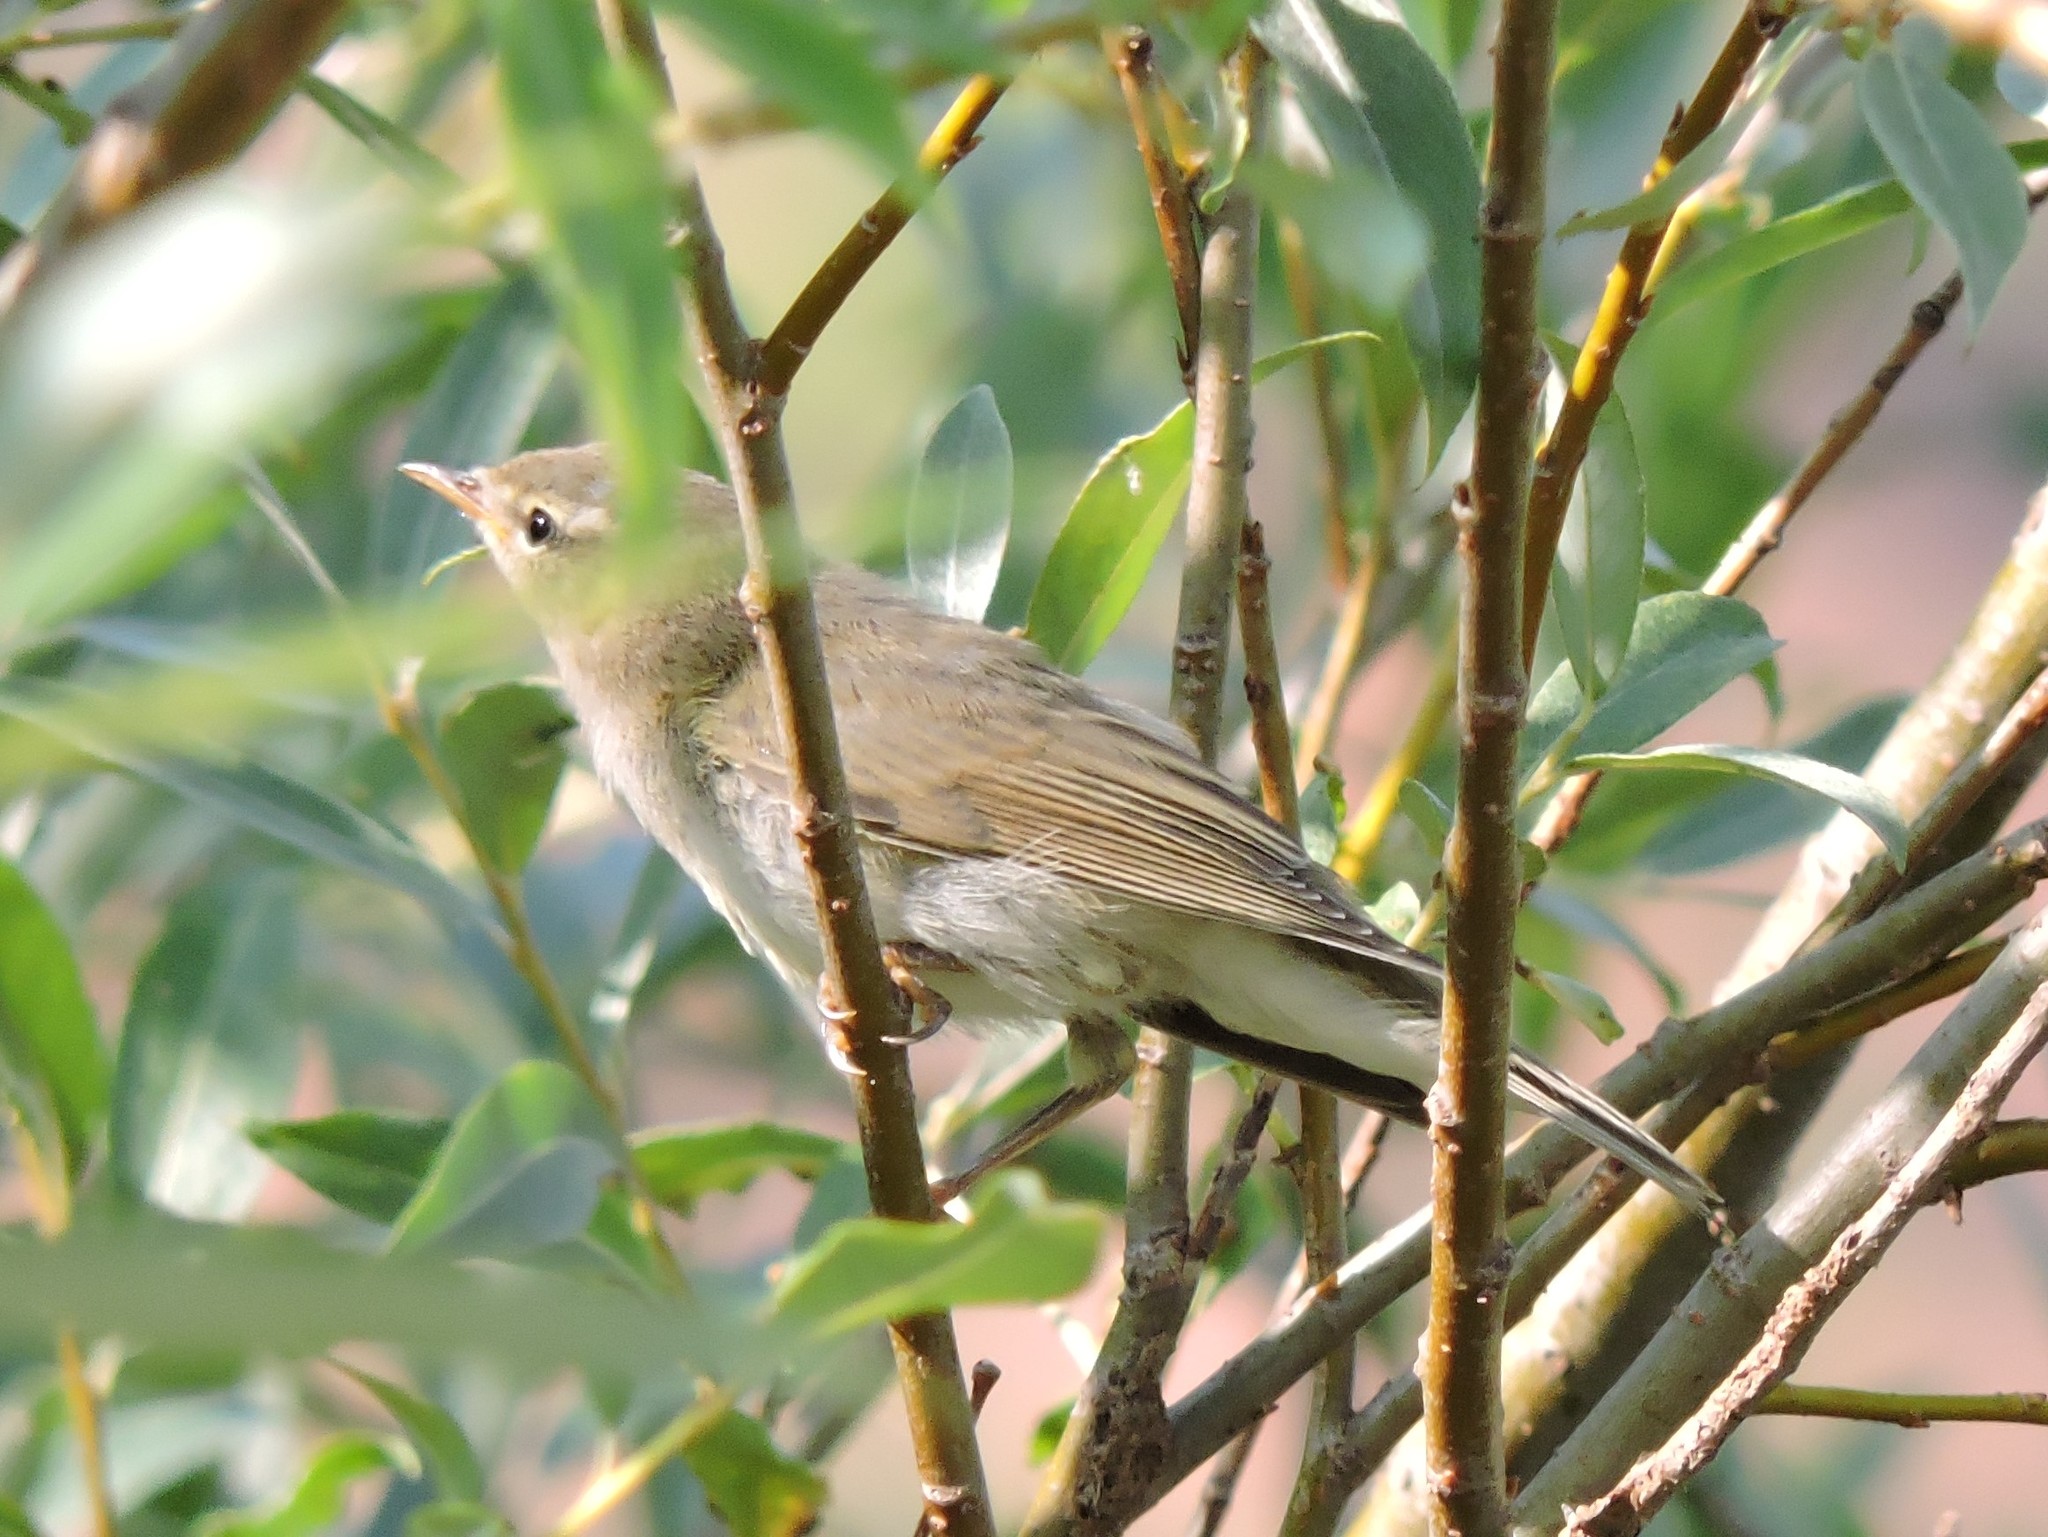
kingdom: Animalia
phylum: Chordata
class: Aves
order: Passeriformes
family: Phylloscopidae
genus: Phylloscopus
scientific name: Phylloscopus trochilus
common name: Willow warbler
